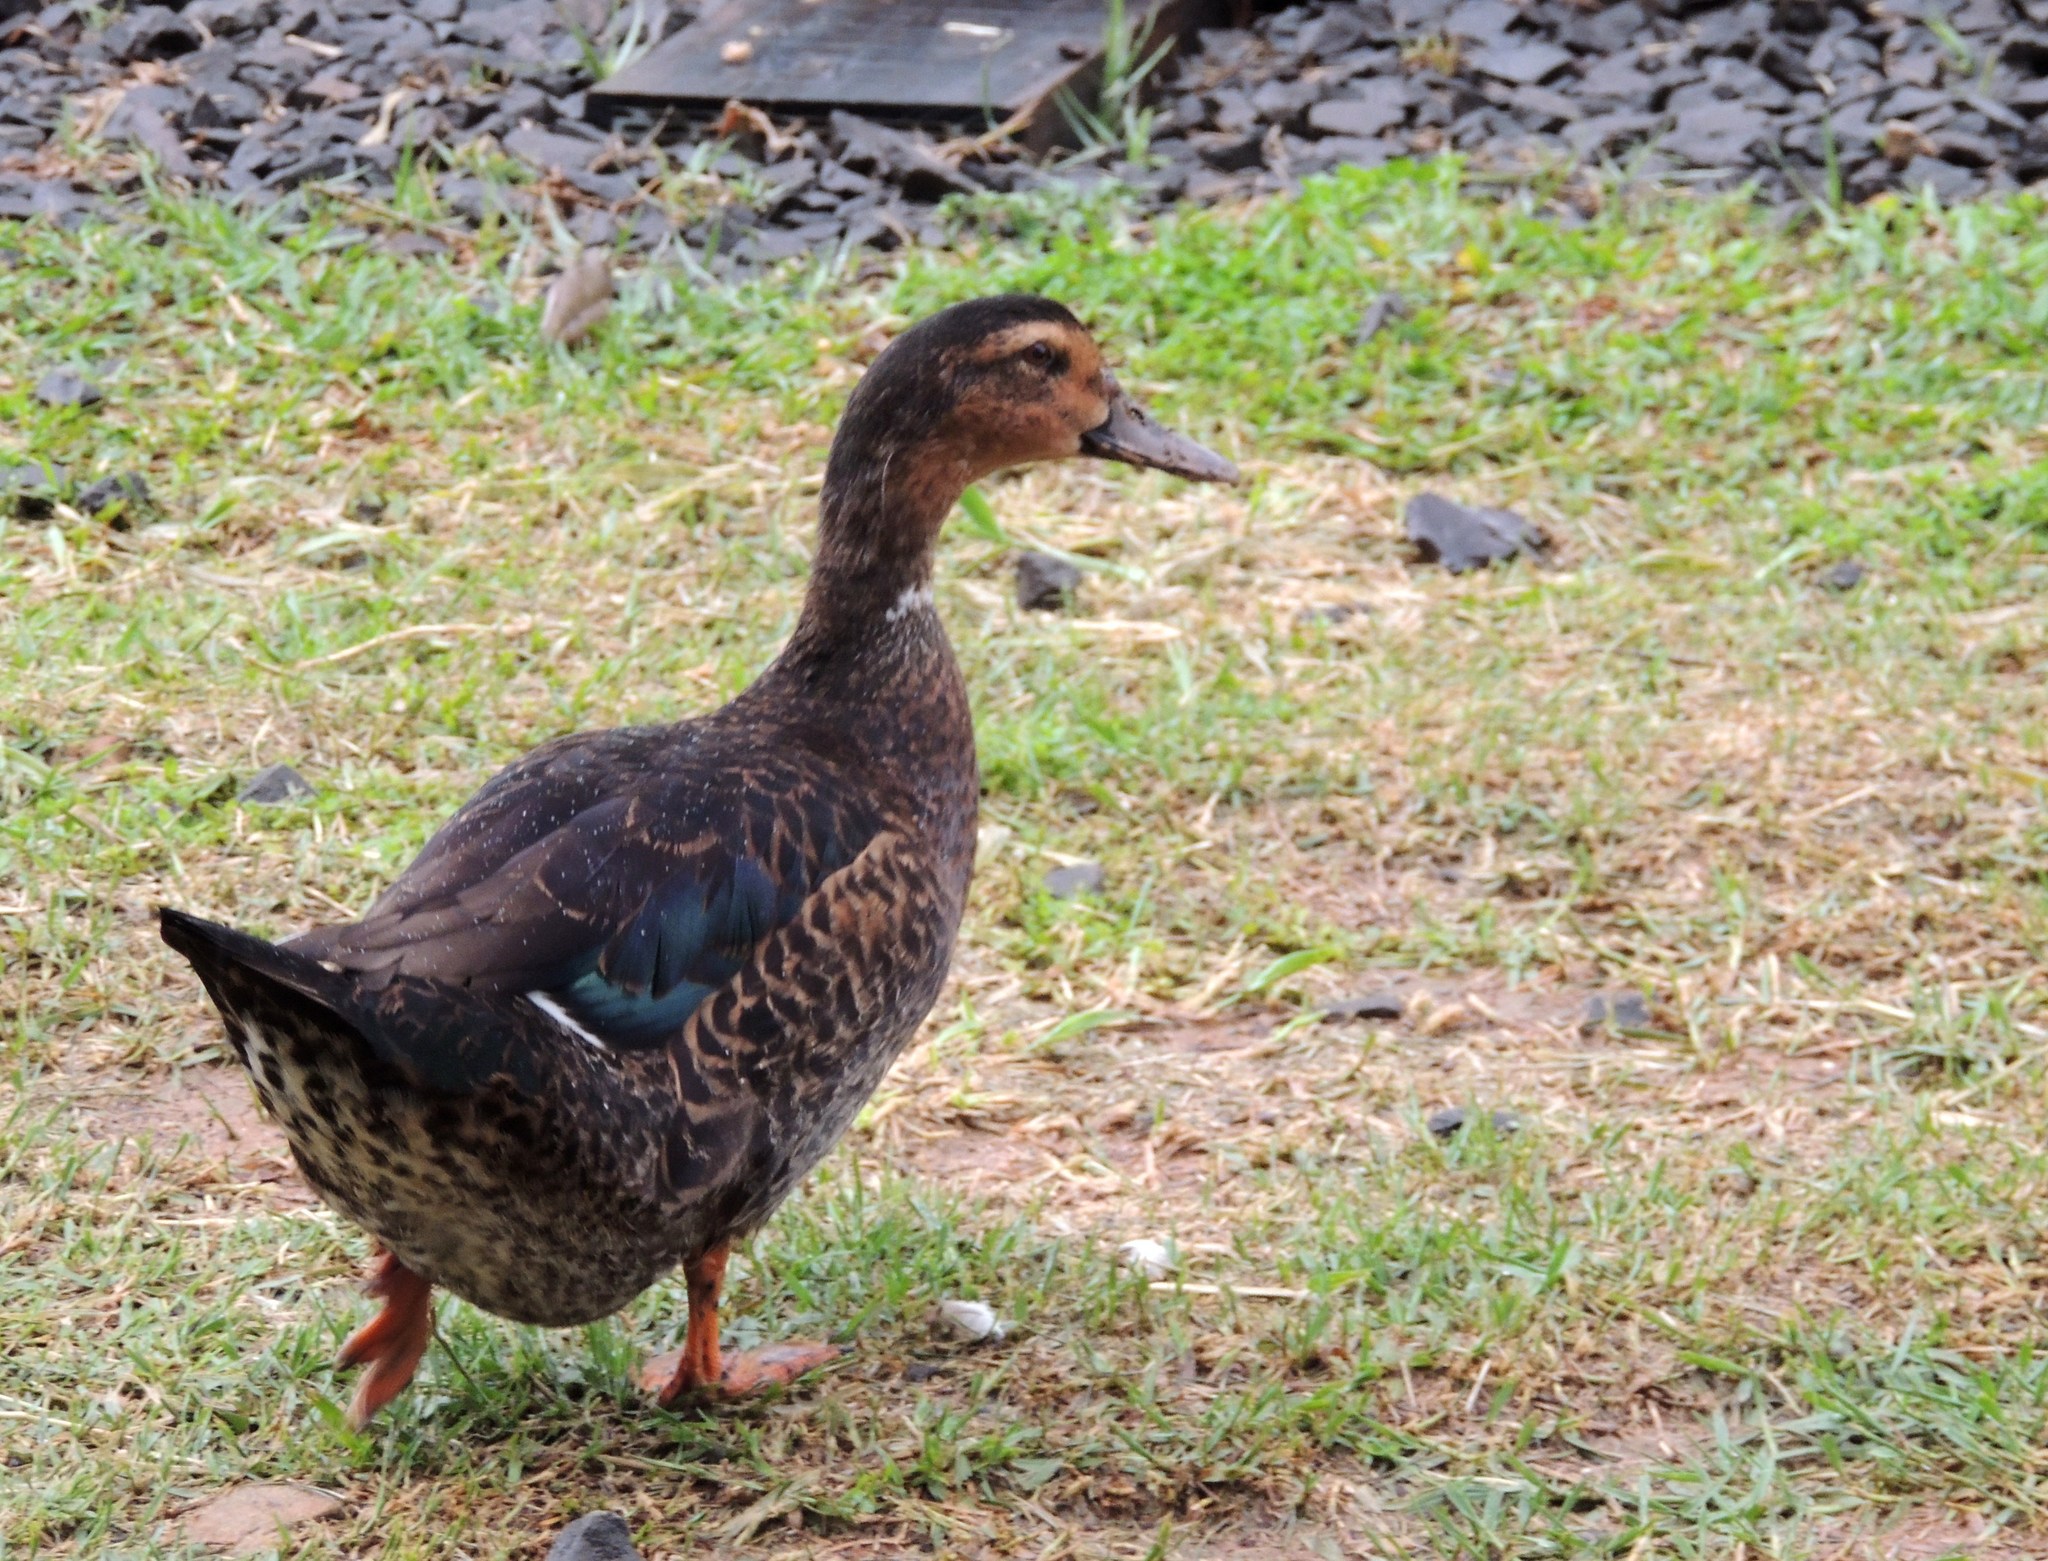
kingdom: Animalia
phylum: Chordata
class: Aves
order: Anseriformes
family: Anatidae
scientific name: Anatidae
